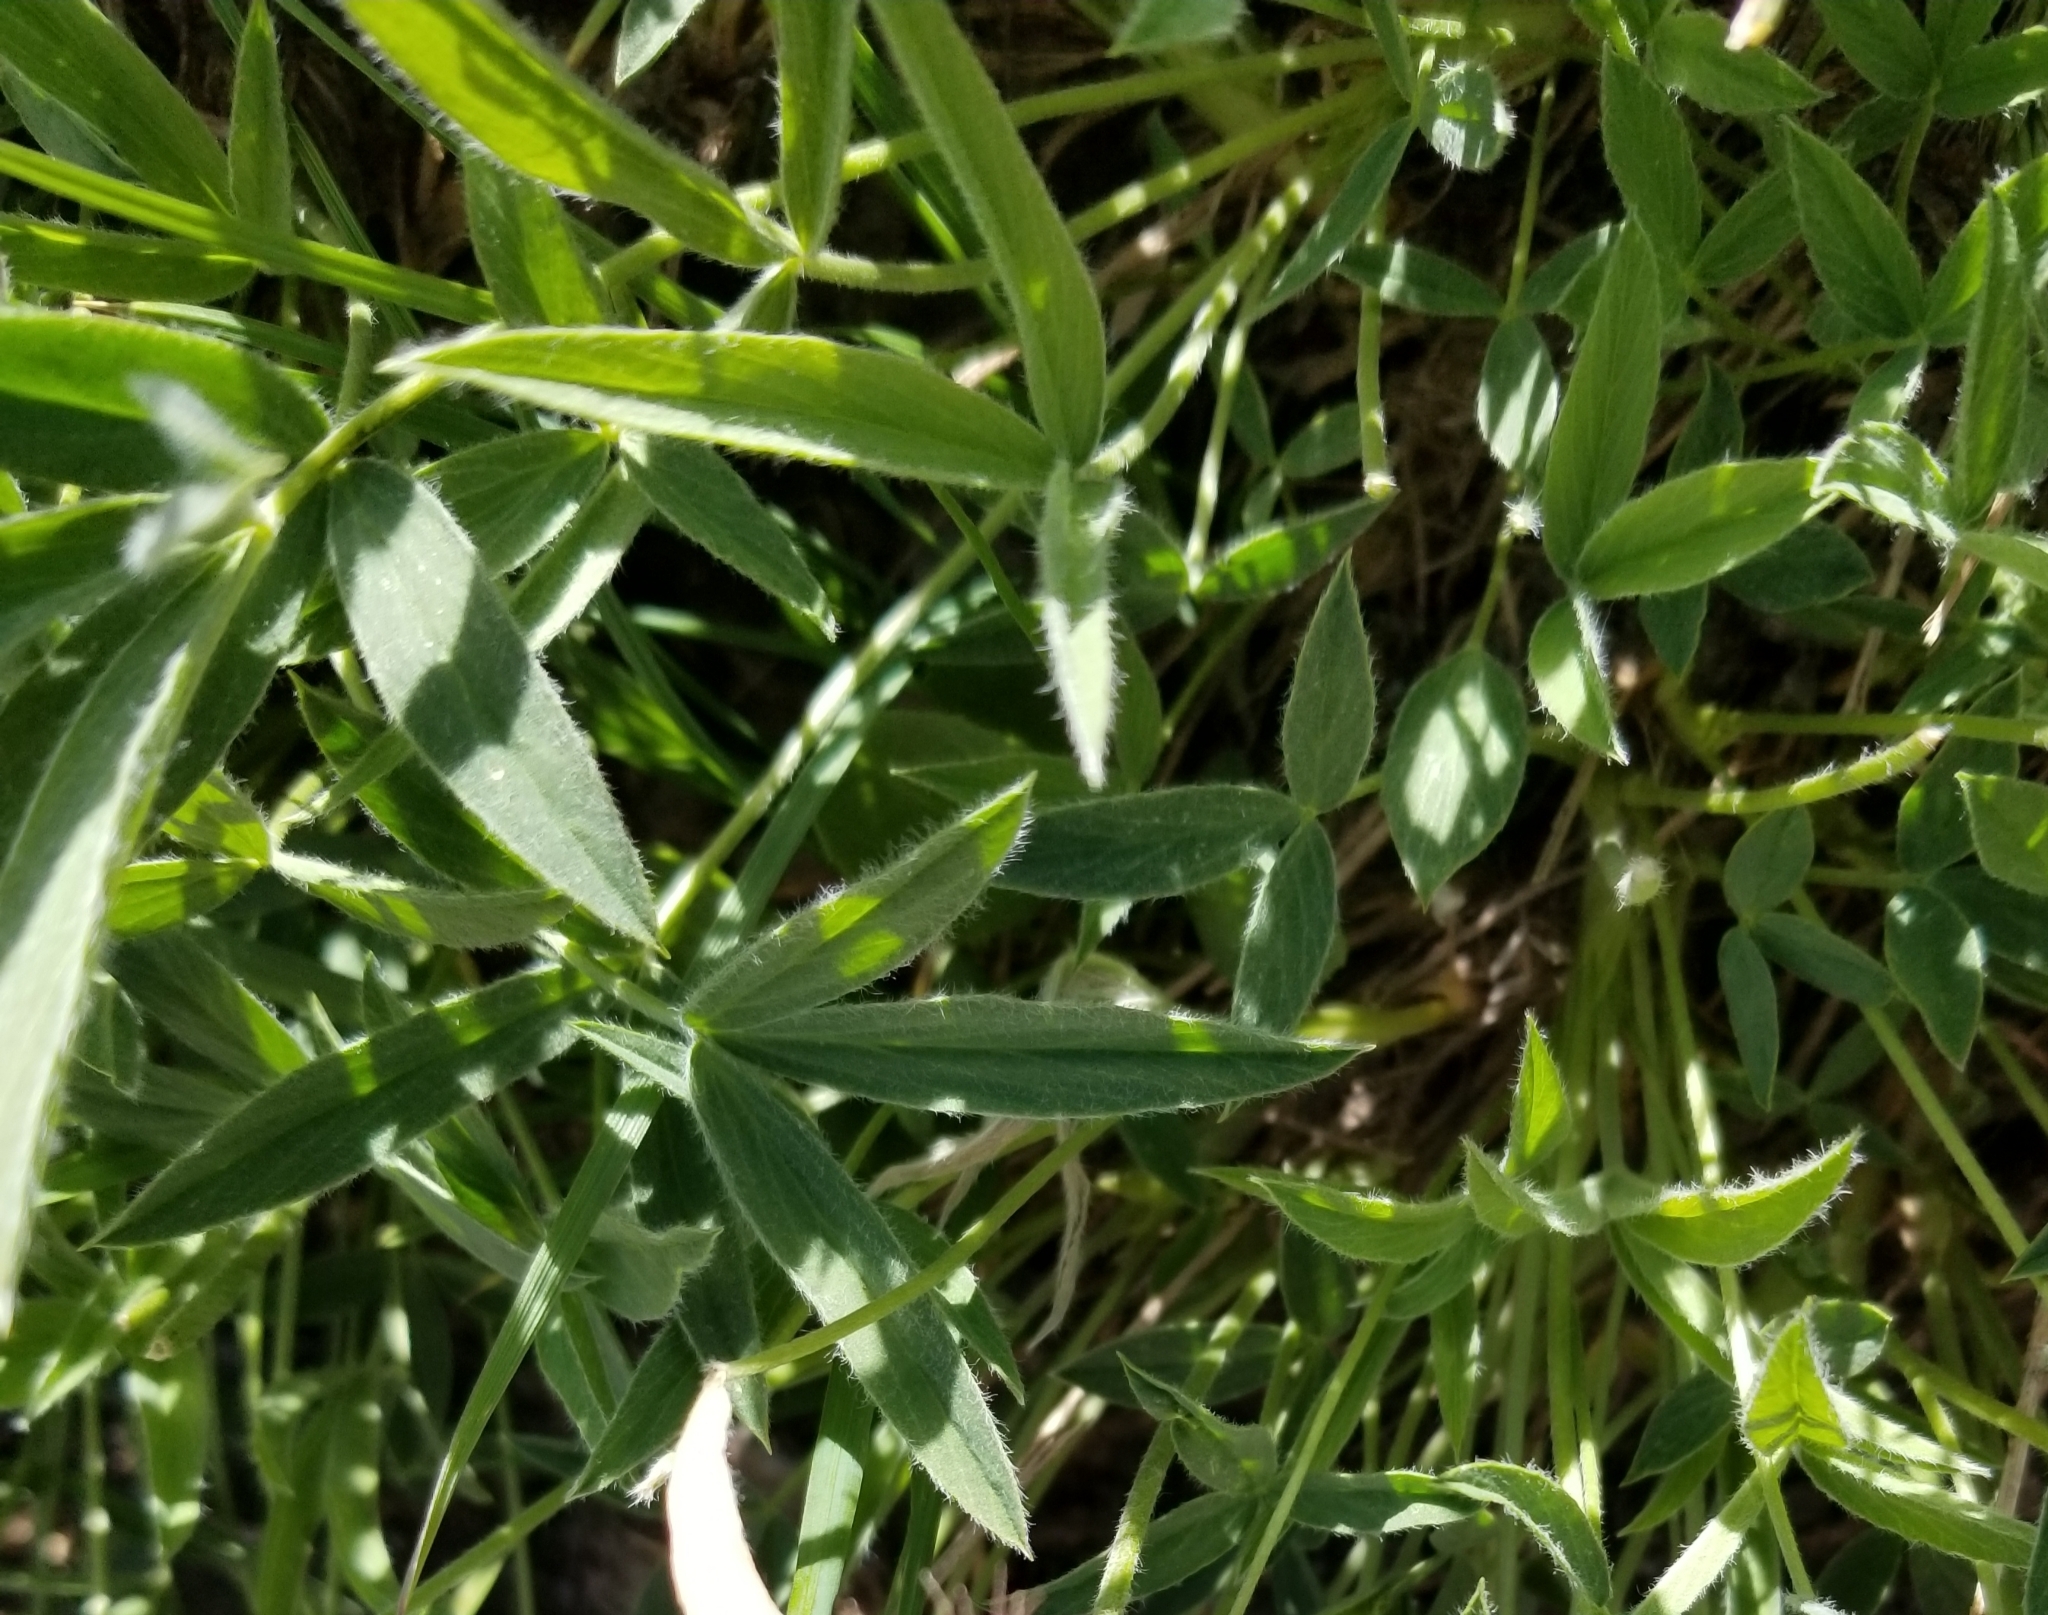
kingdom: Plantae
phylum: Tracheophyta
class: Magnoliopsida
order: Fabales
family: Fabaceae
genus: Trifolium
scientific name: Trifolium attenuatum
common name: Rocky mountain clover
